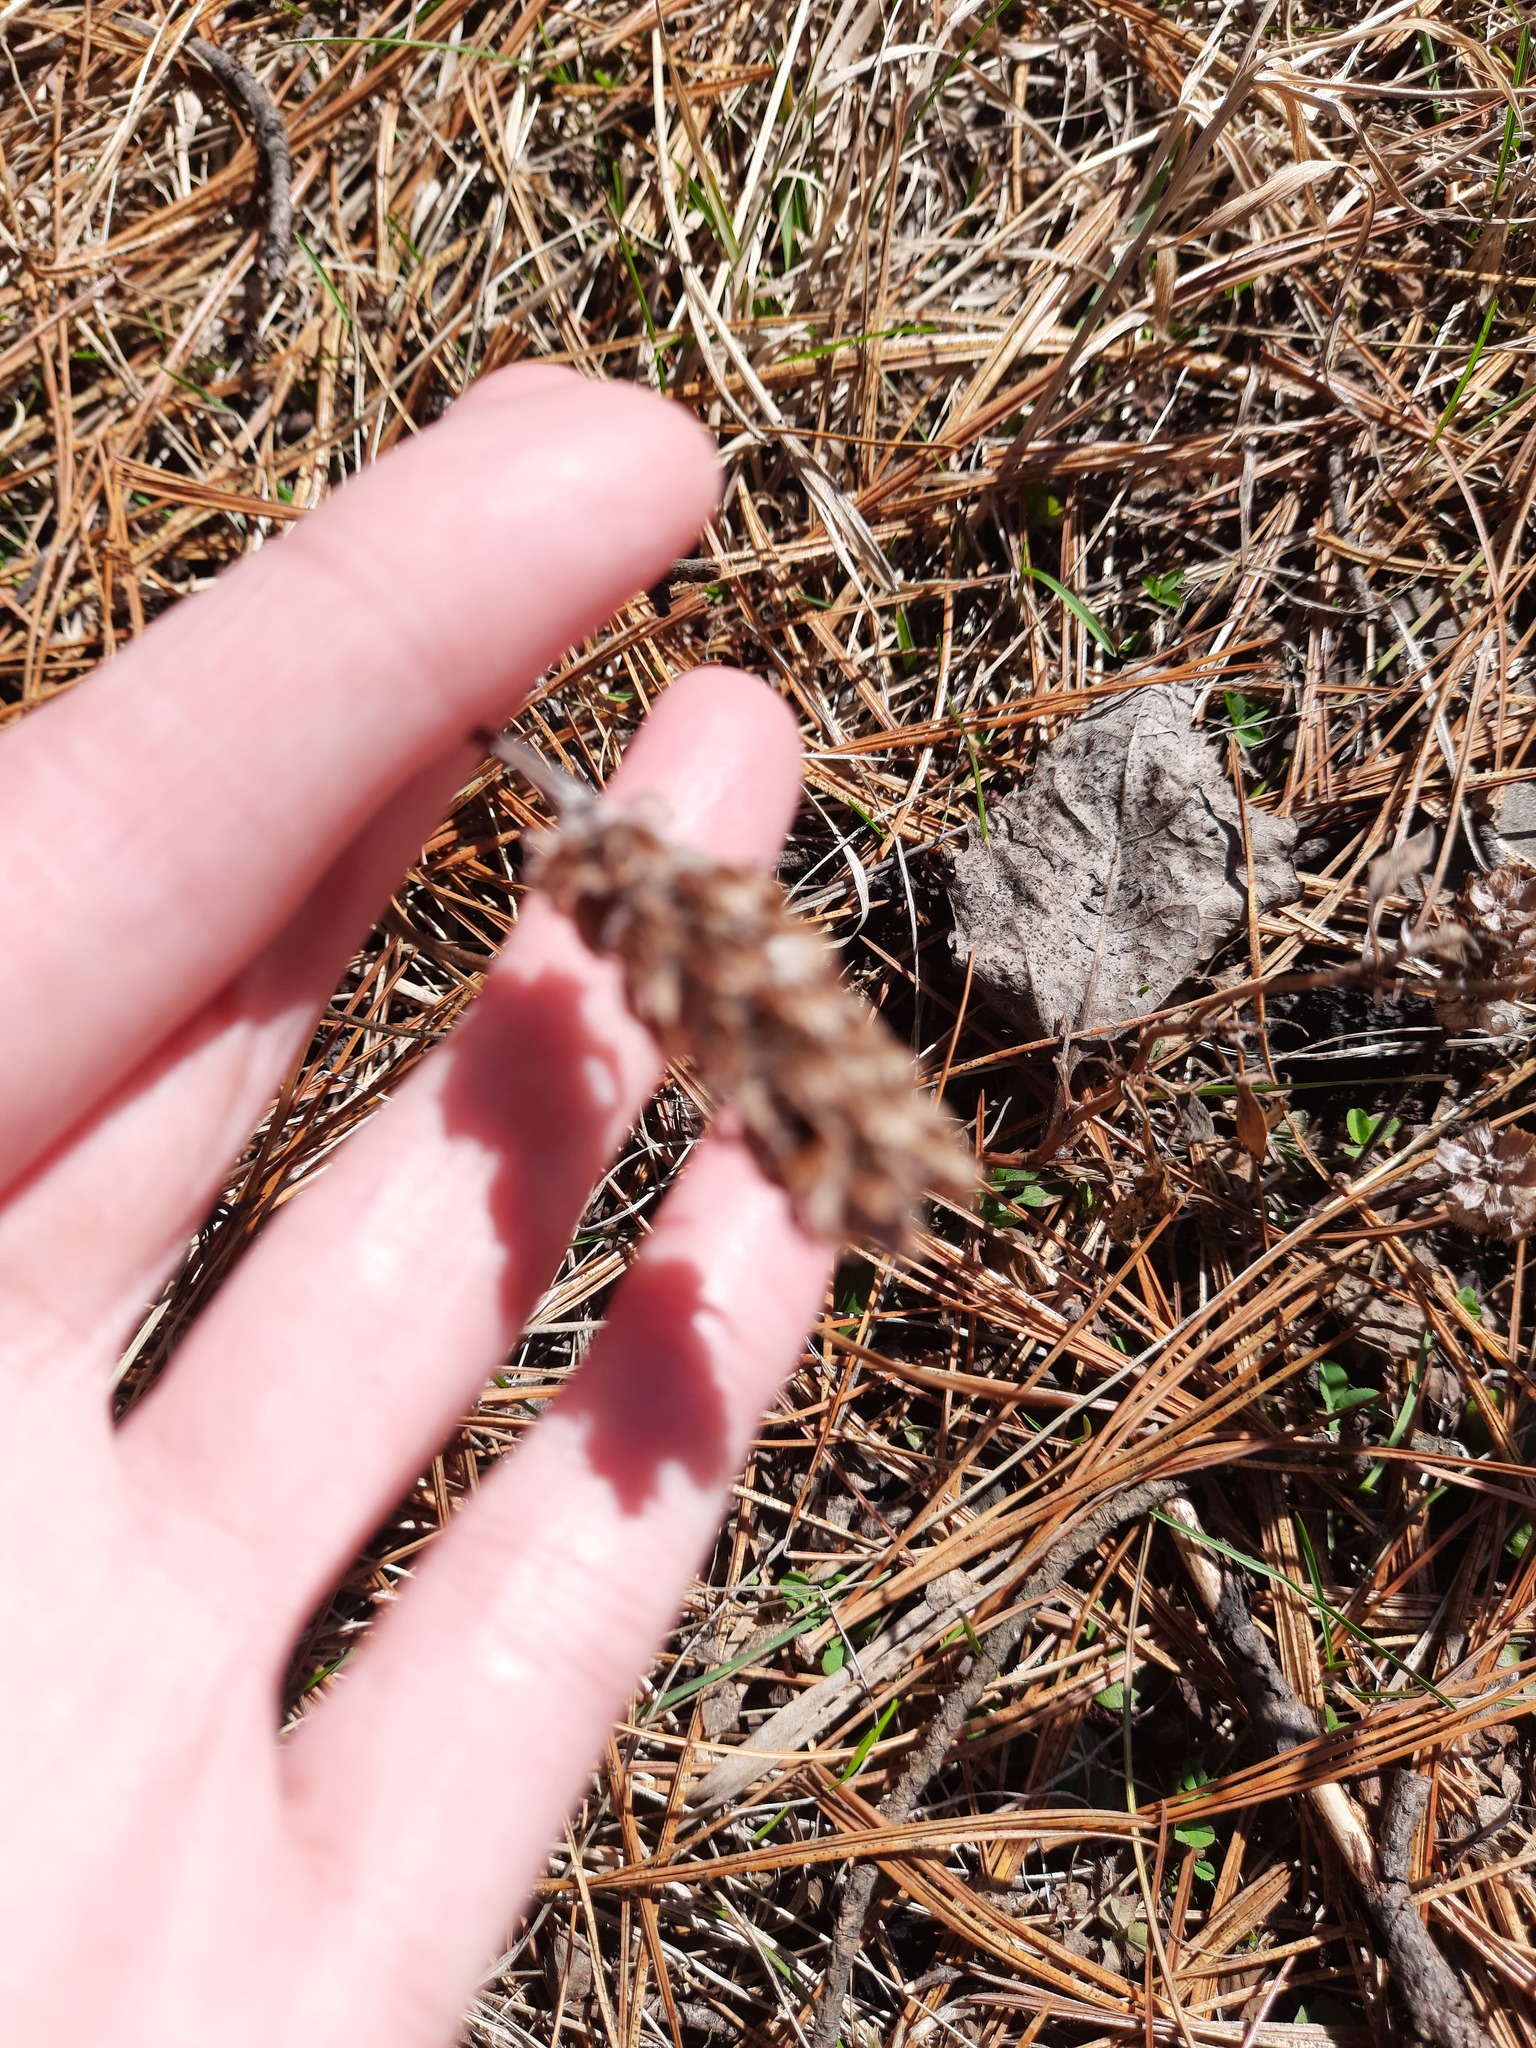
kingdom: Plantae
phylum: Tracheophyta
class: Magnoliopsida
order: Lamiales
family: Lamiaceae
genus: Prunella
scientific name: Prunella vulgaris
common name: Heal-all
